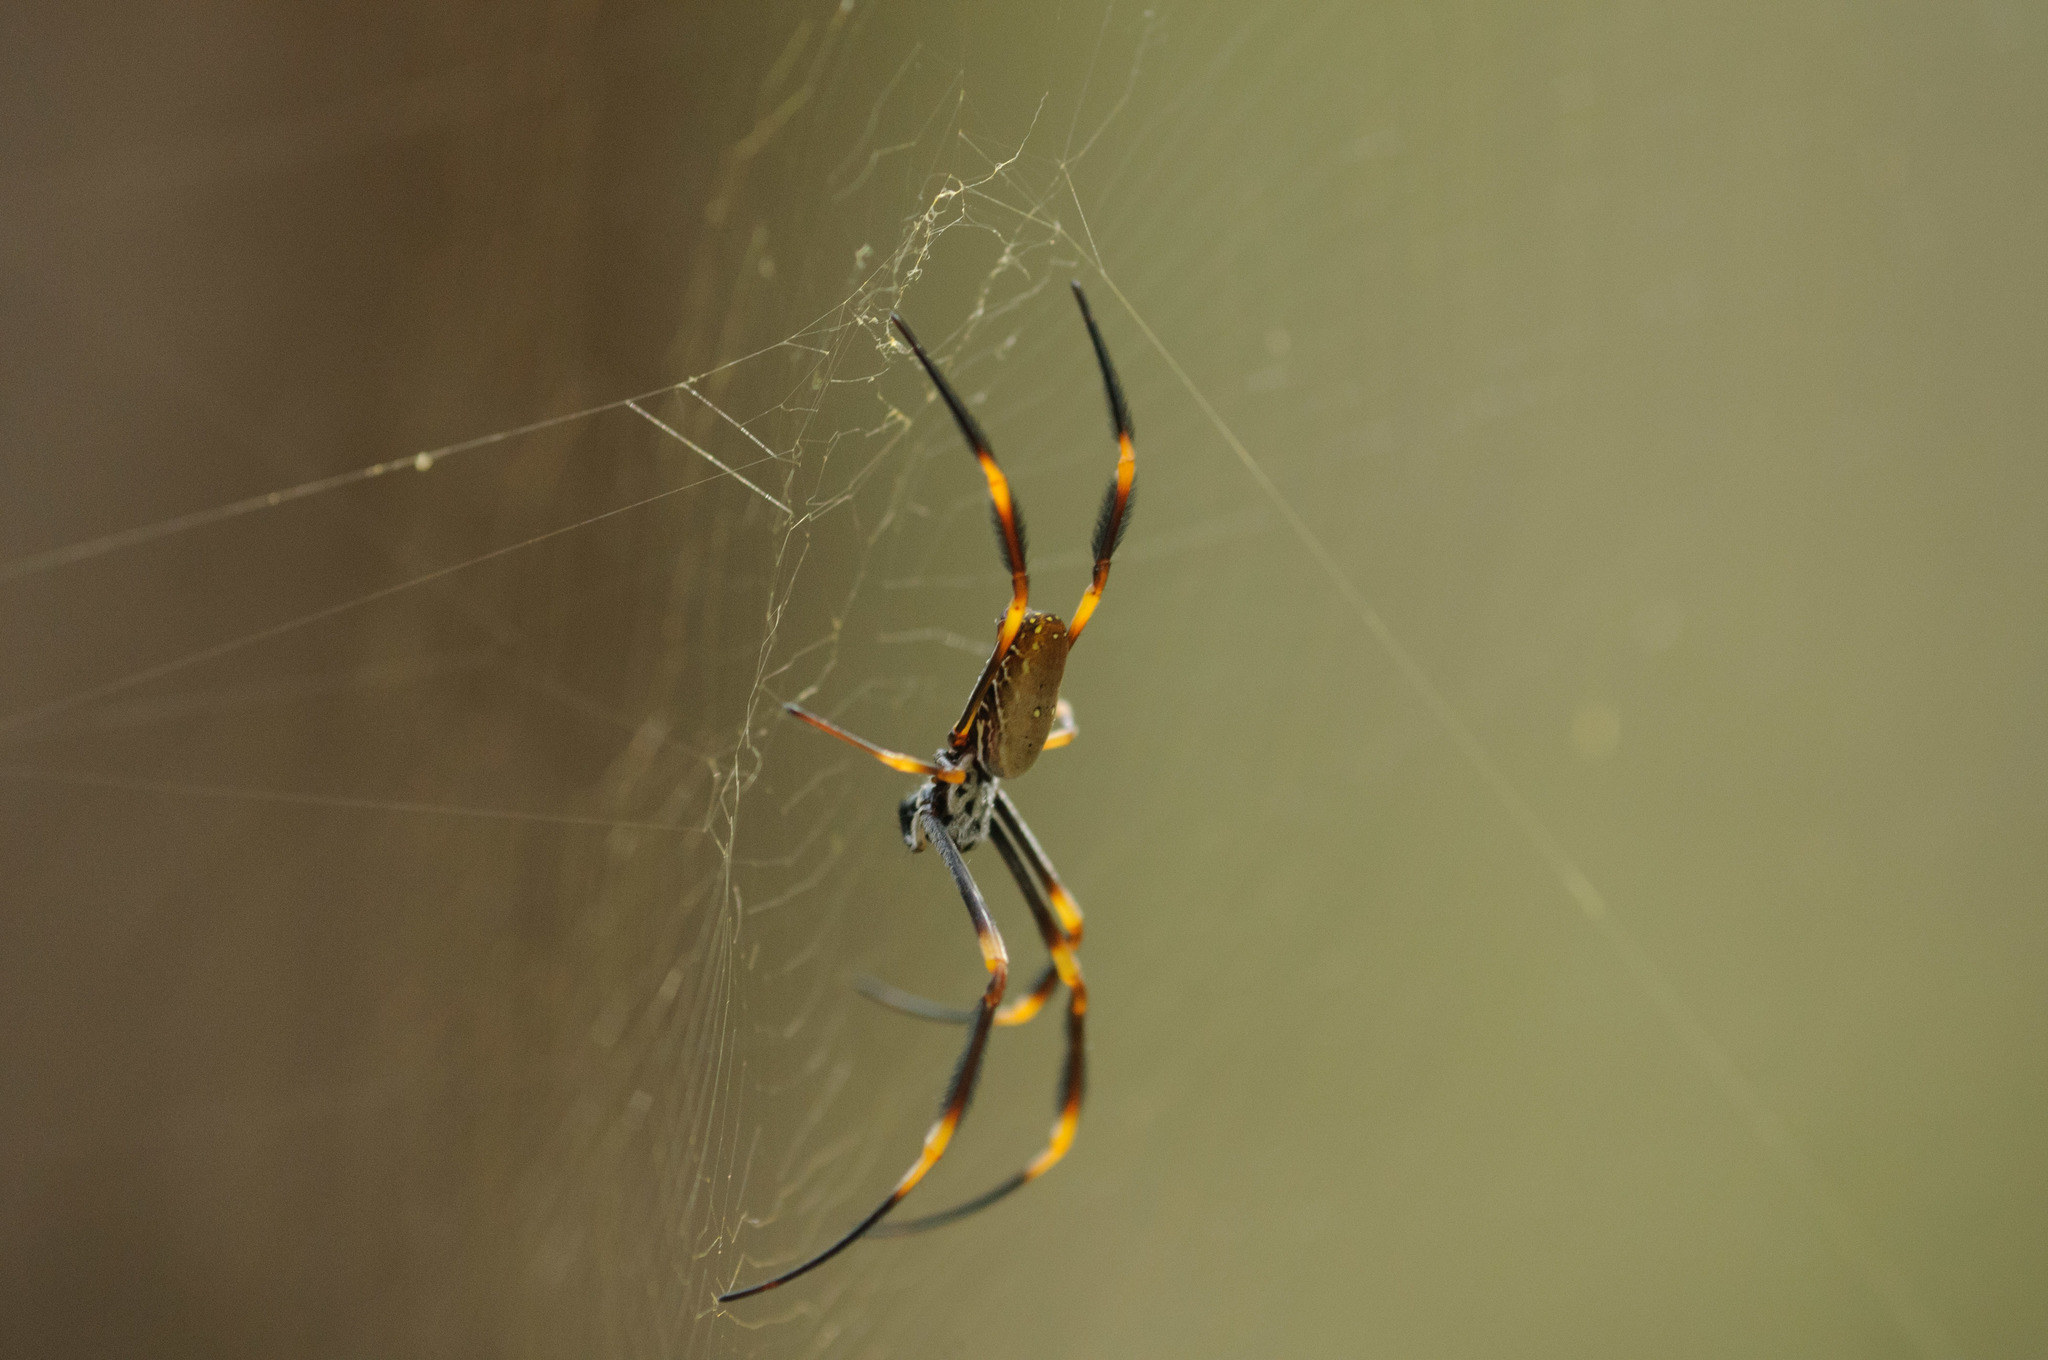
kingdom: Animalia
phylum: Arthropoda
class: Arachnida
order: Araneae
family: Araneidae
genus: Trichonephila
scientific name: Trichonephila plumipes
